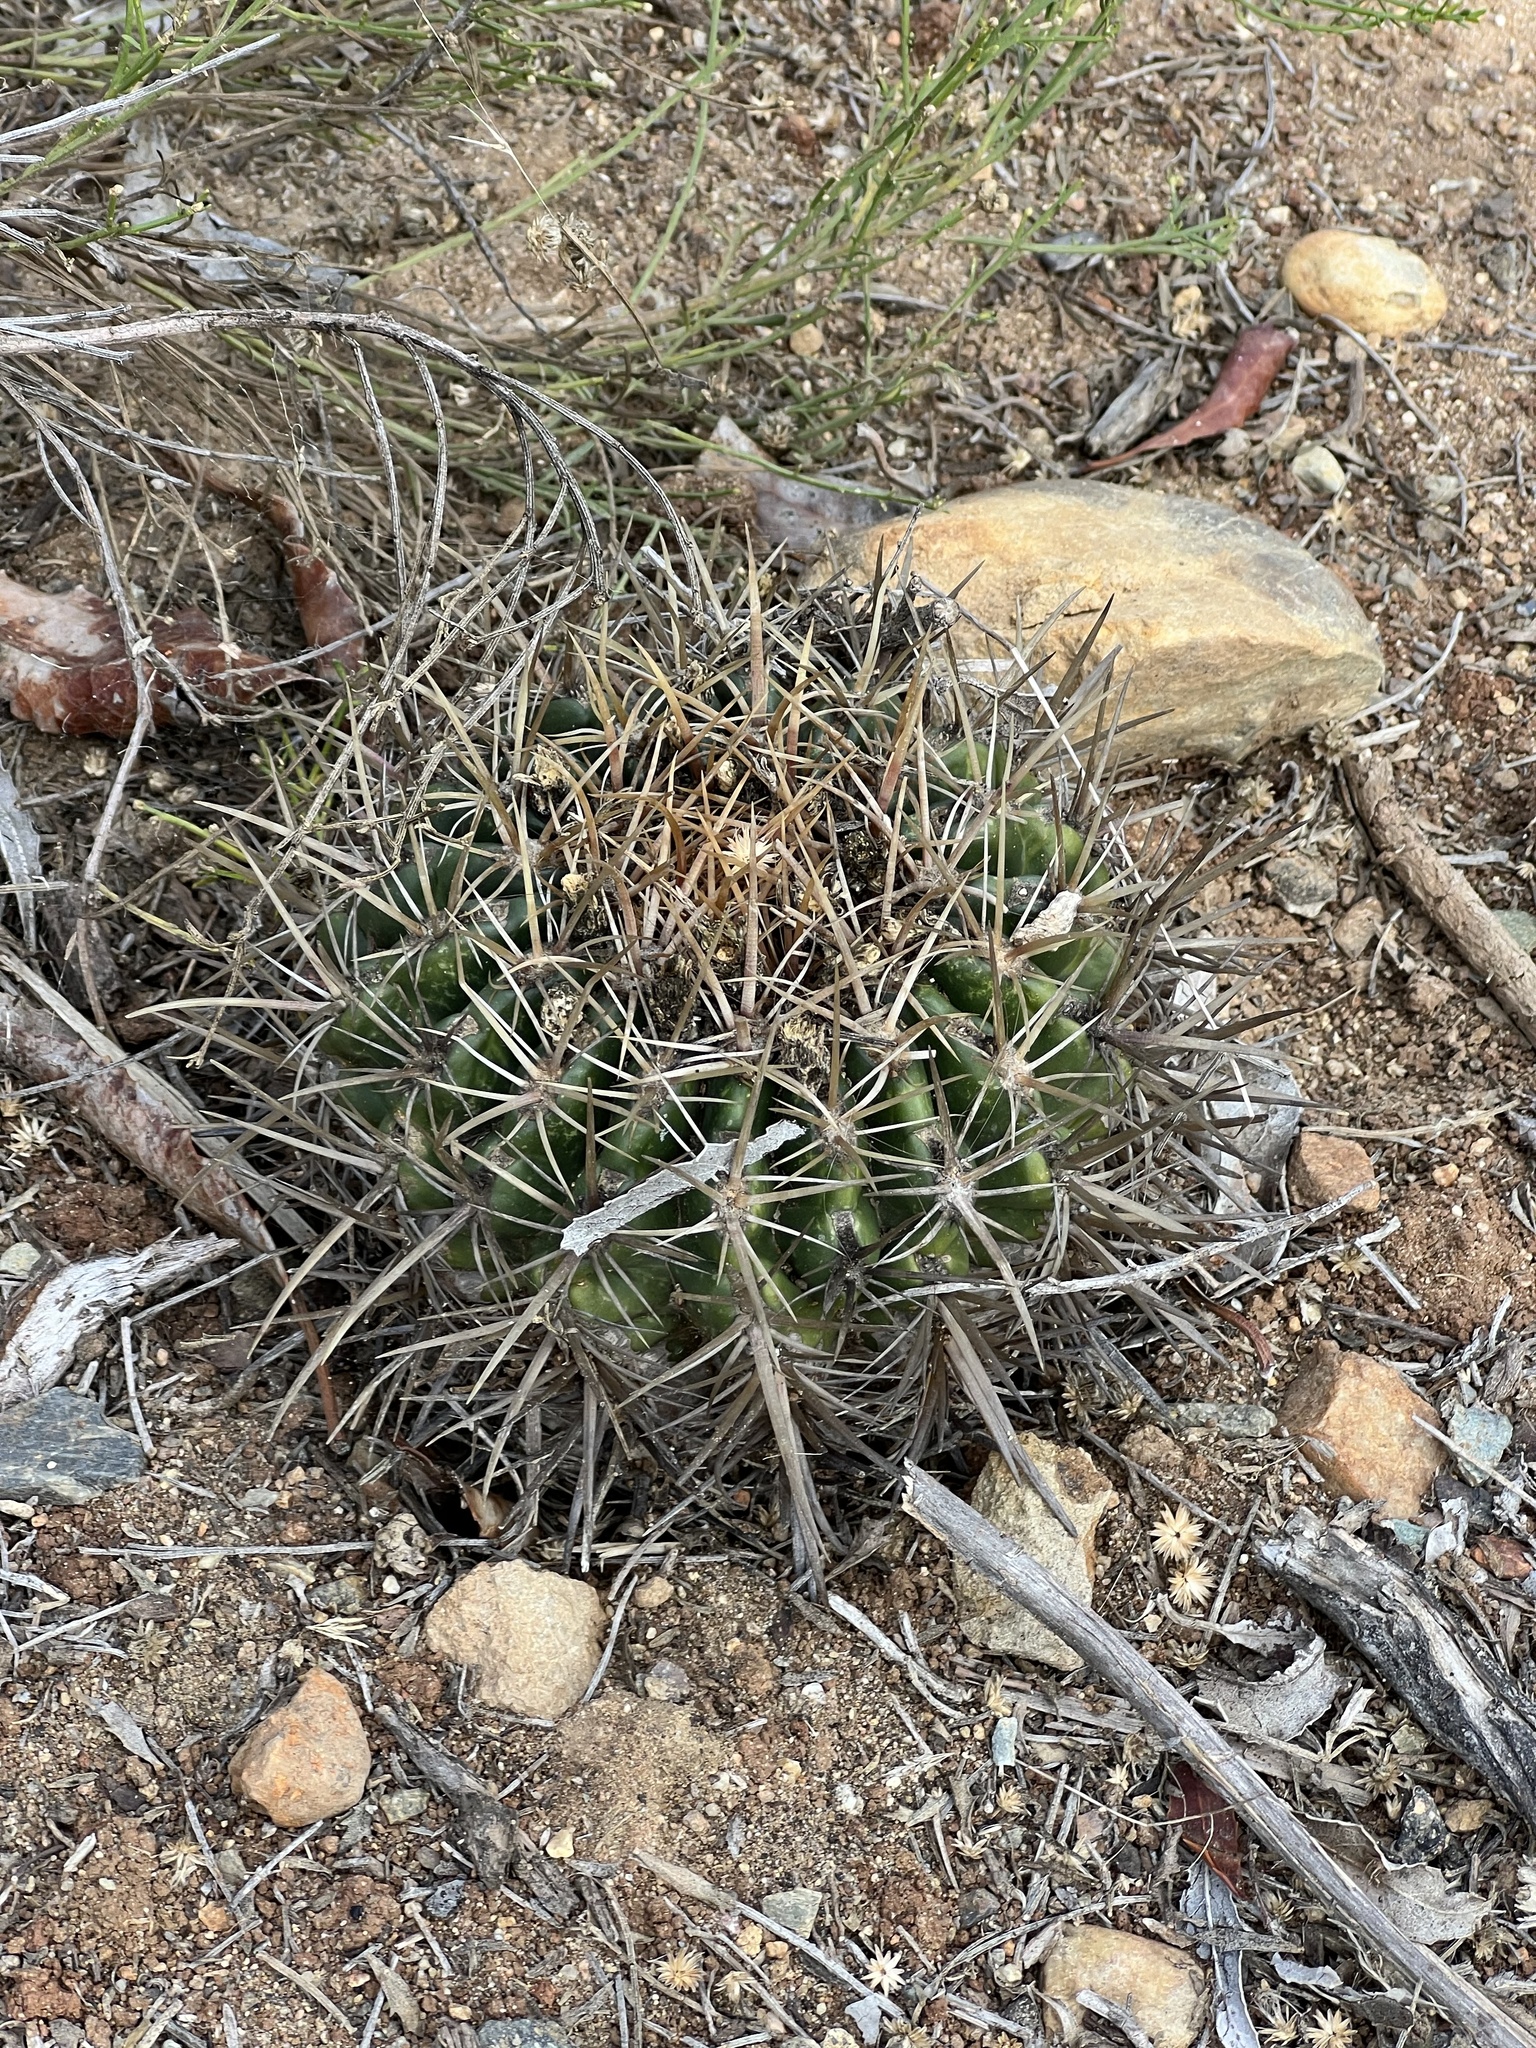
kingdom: Plantae
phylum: Tracheophyta
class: Magnoliopsida
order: Caryophyllales
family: Cactaceae
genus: Ferocactus
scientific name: Ferocactus viridescens
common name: San diego barrel cactus
